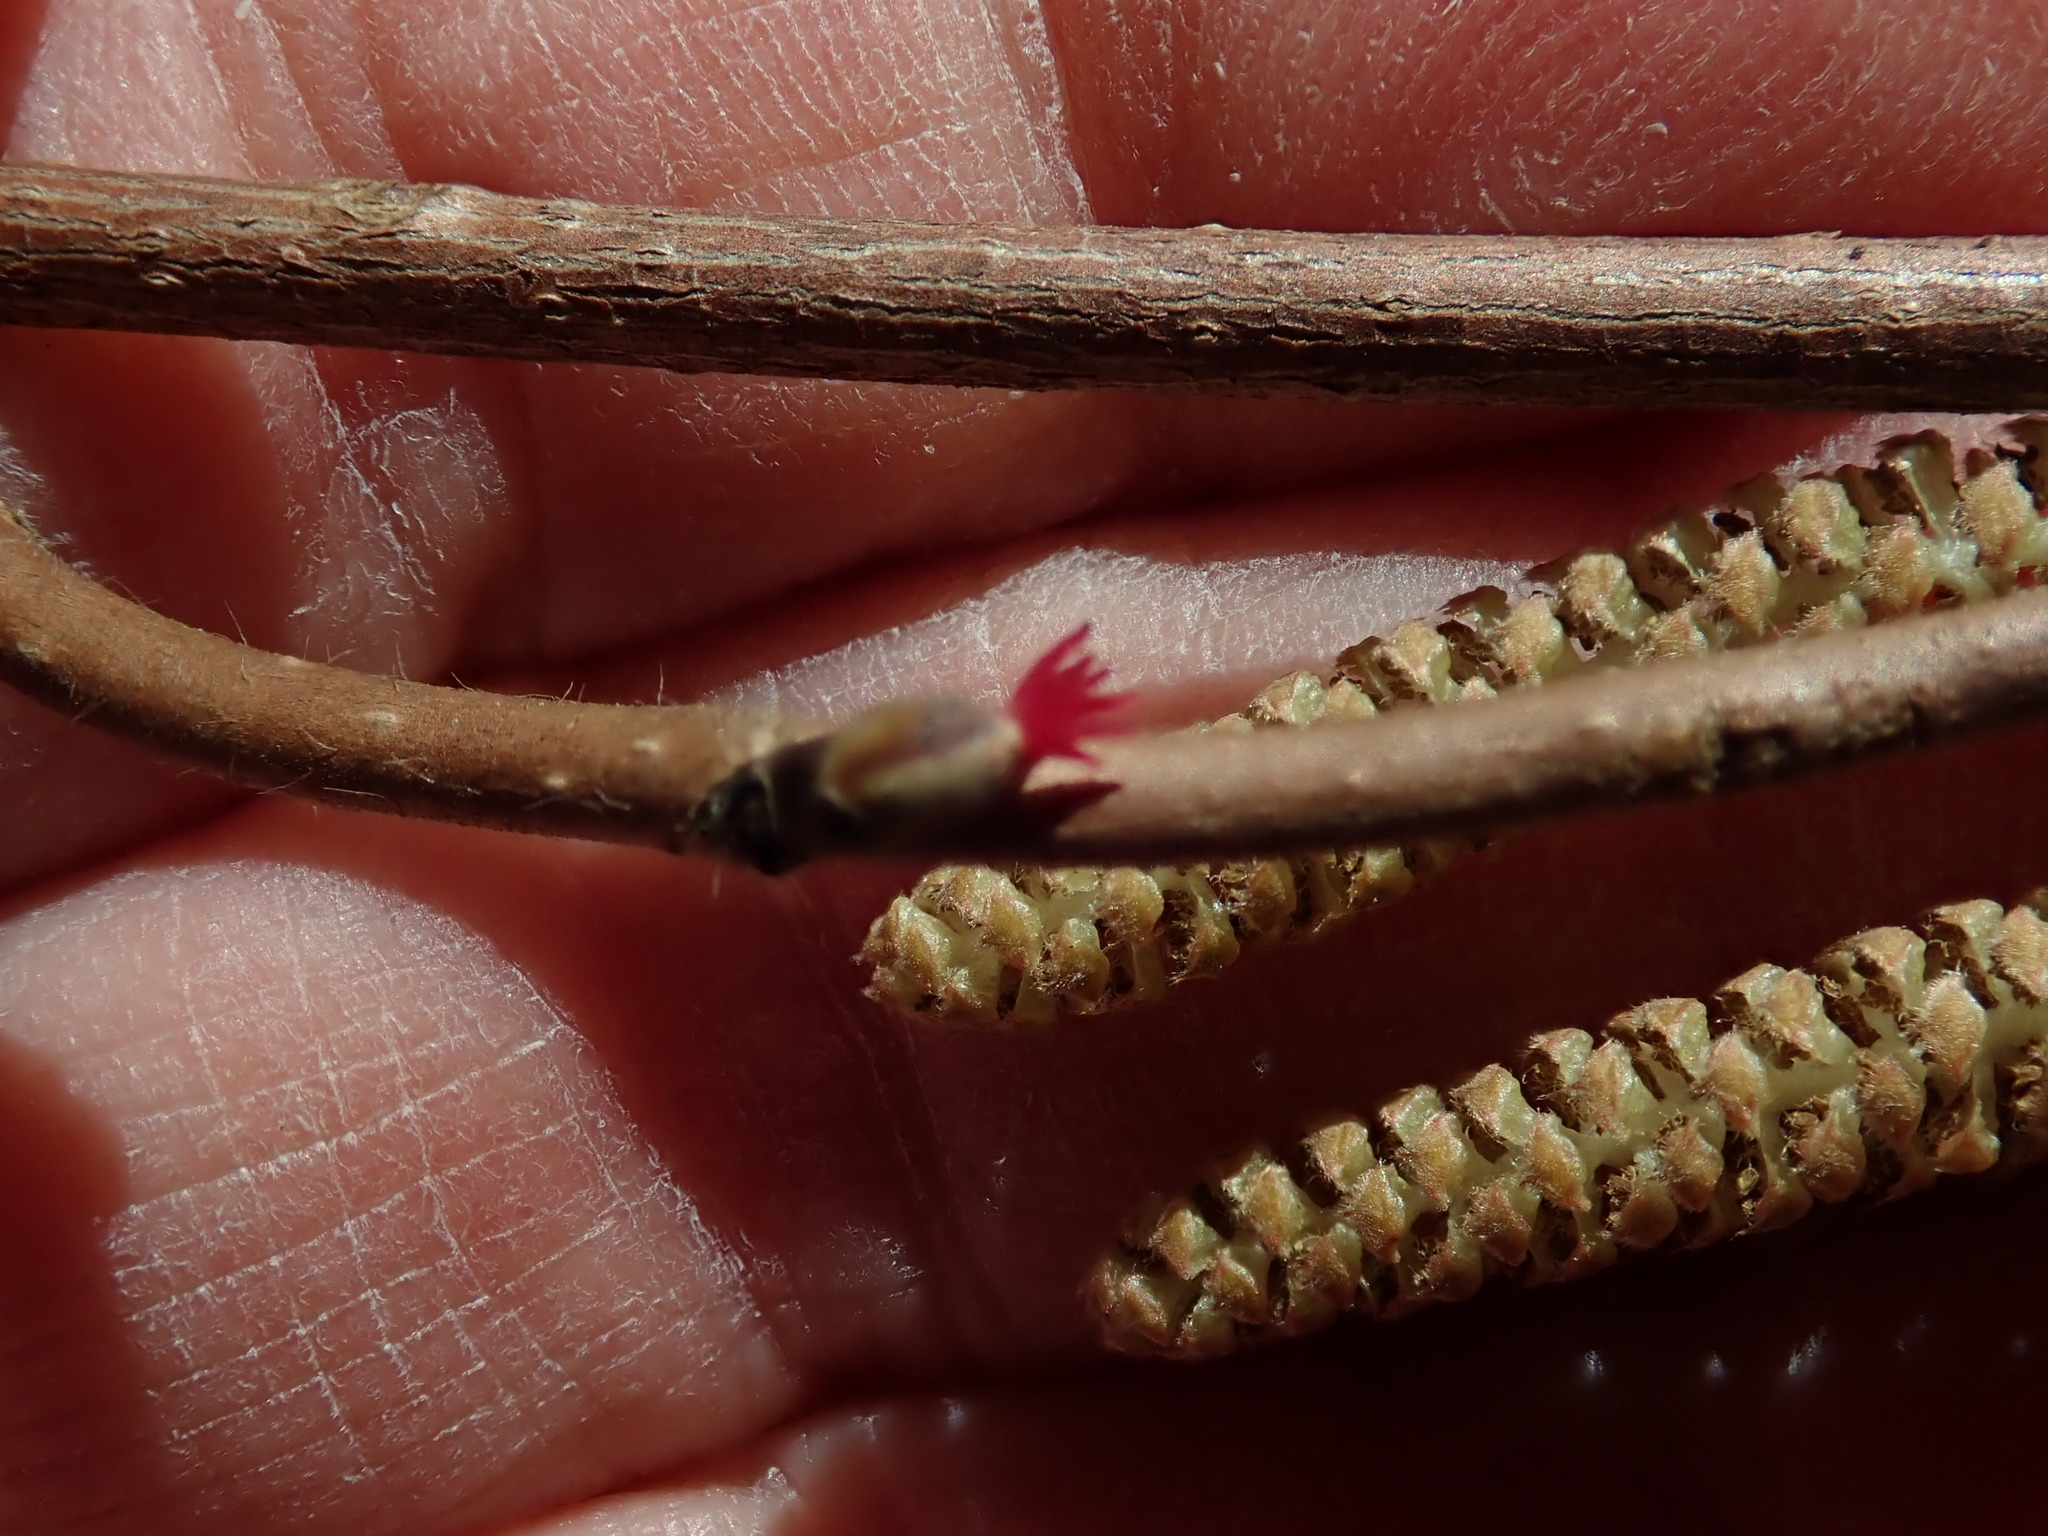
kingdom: Plantae
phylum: Tracheophyta
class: Magnoliopsida
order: Fagales
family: Betulaceae
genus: Corylus
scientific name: Corylus cornuta
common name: Beaked hazel
